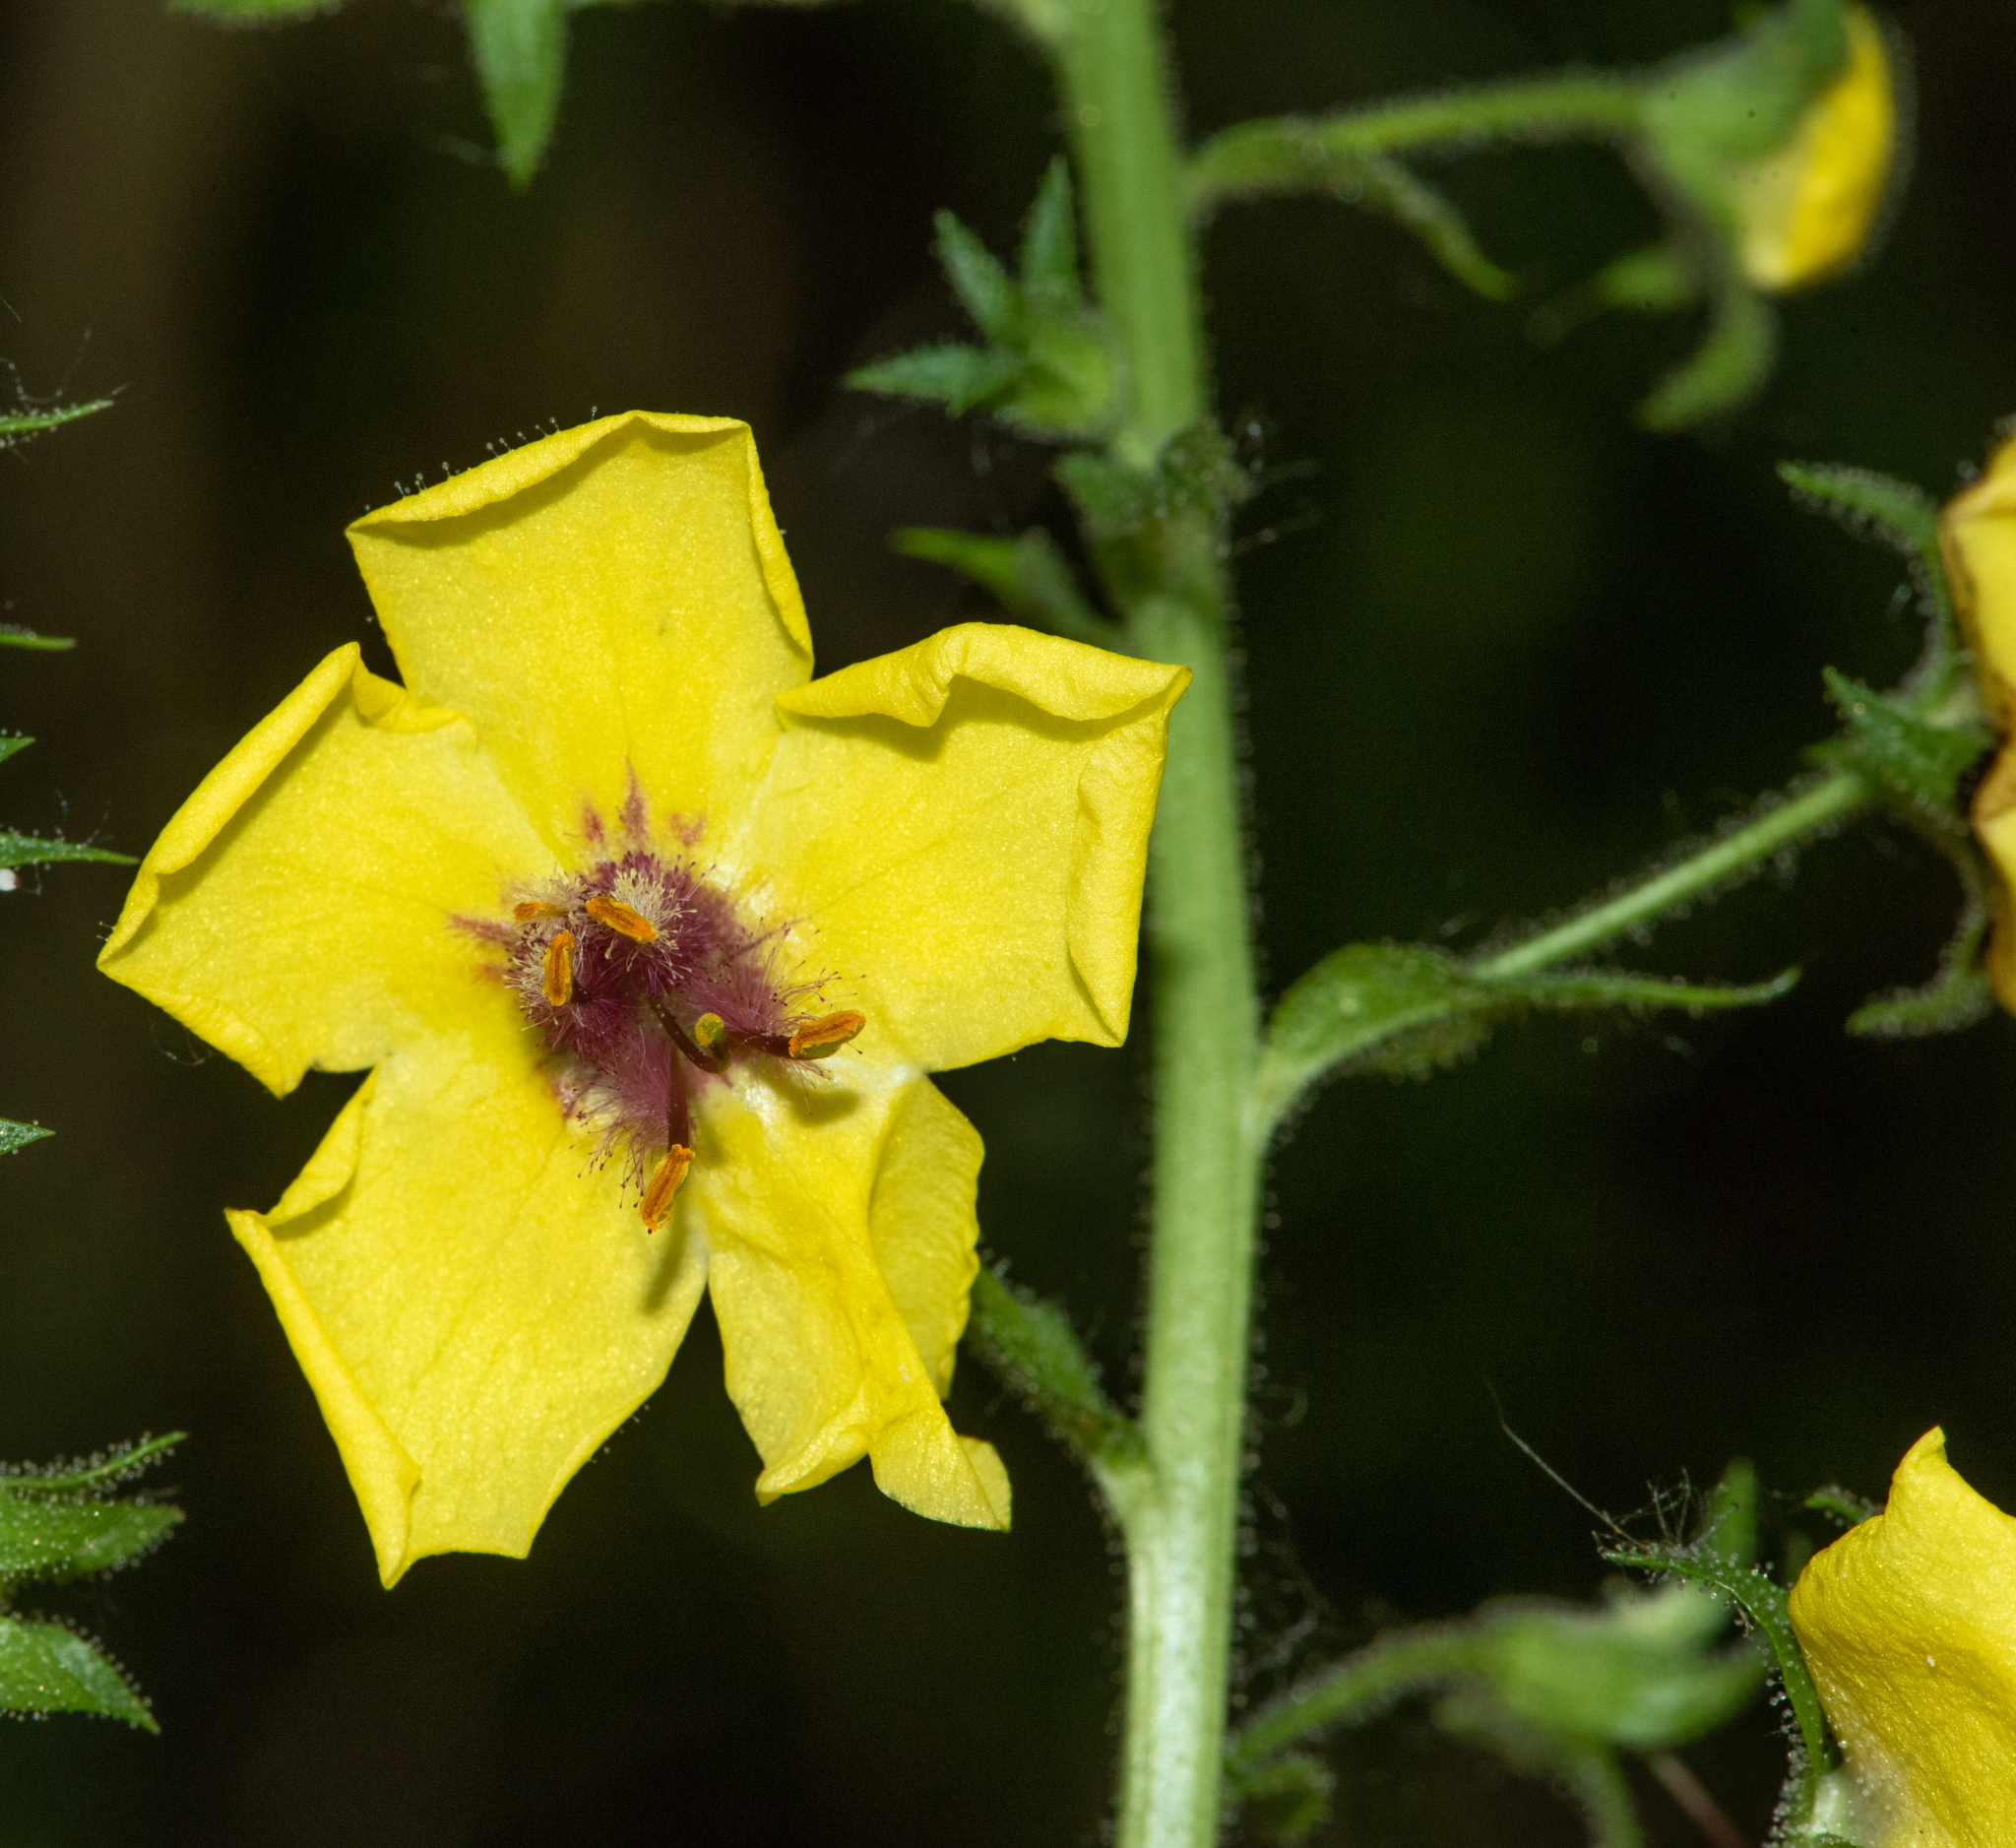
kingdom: Plantae
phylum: Tracheophyta
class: Magnoliopsida
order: Lamiales
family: Scrophulariaceae
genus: Verbascum
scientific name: Verbascum blattaria
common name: Moth mullein
